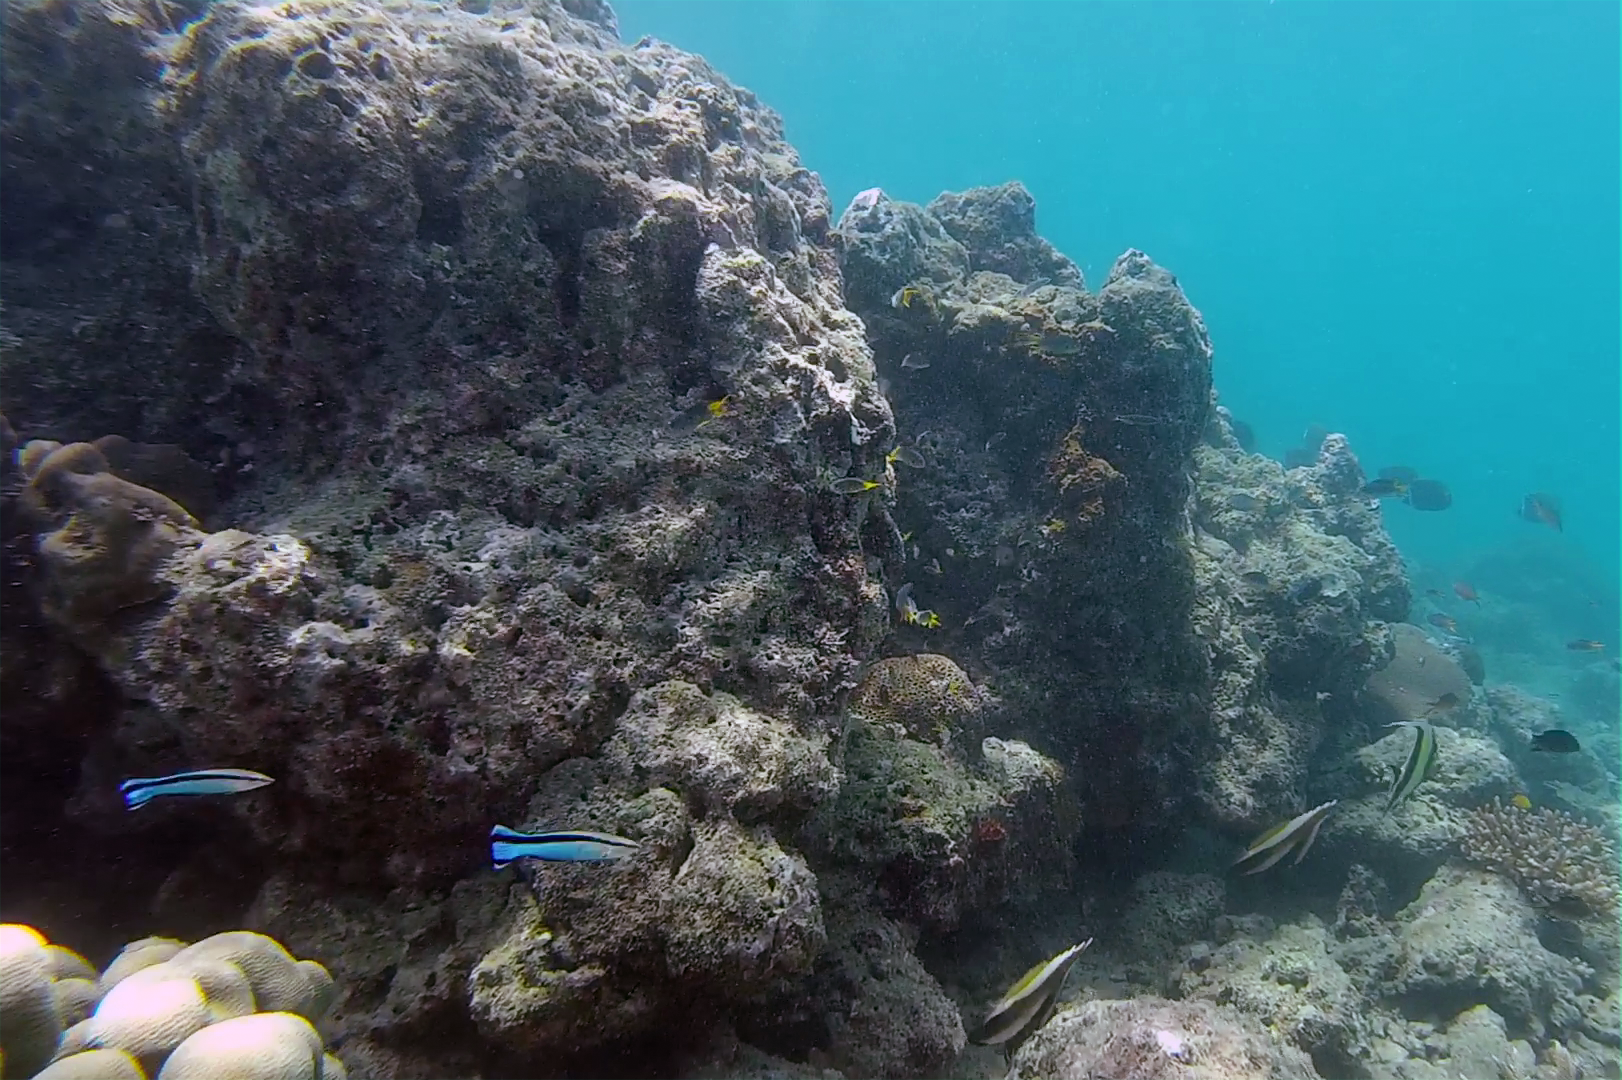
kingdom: Animalia
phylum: Chordata
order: Perciformes
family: Labridae
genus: Labroides
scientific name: Labroides dimidiatus
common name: Blue diesel wrasse
